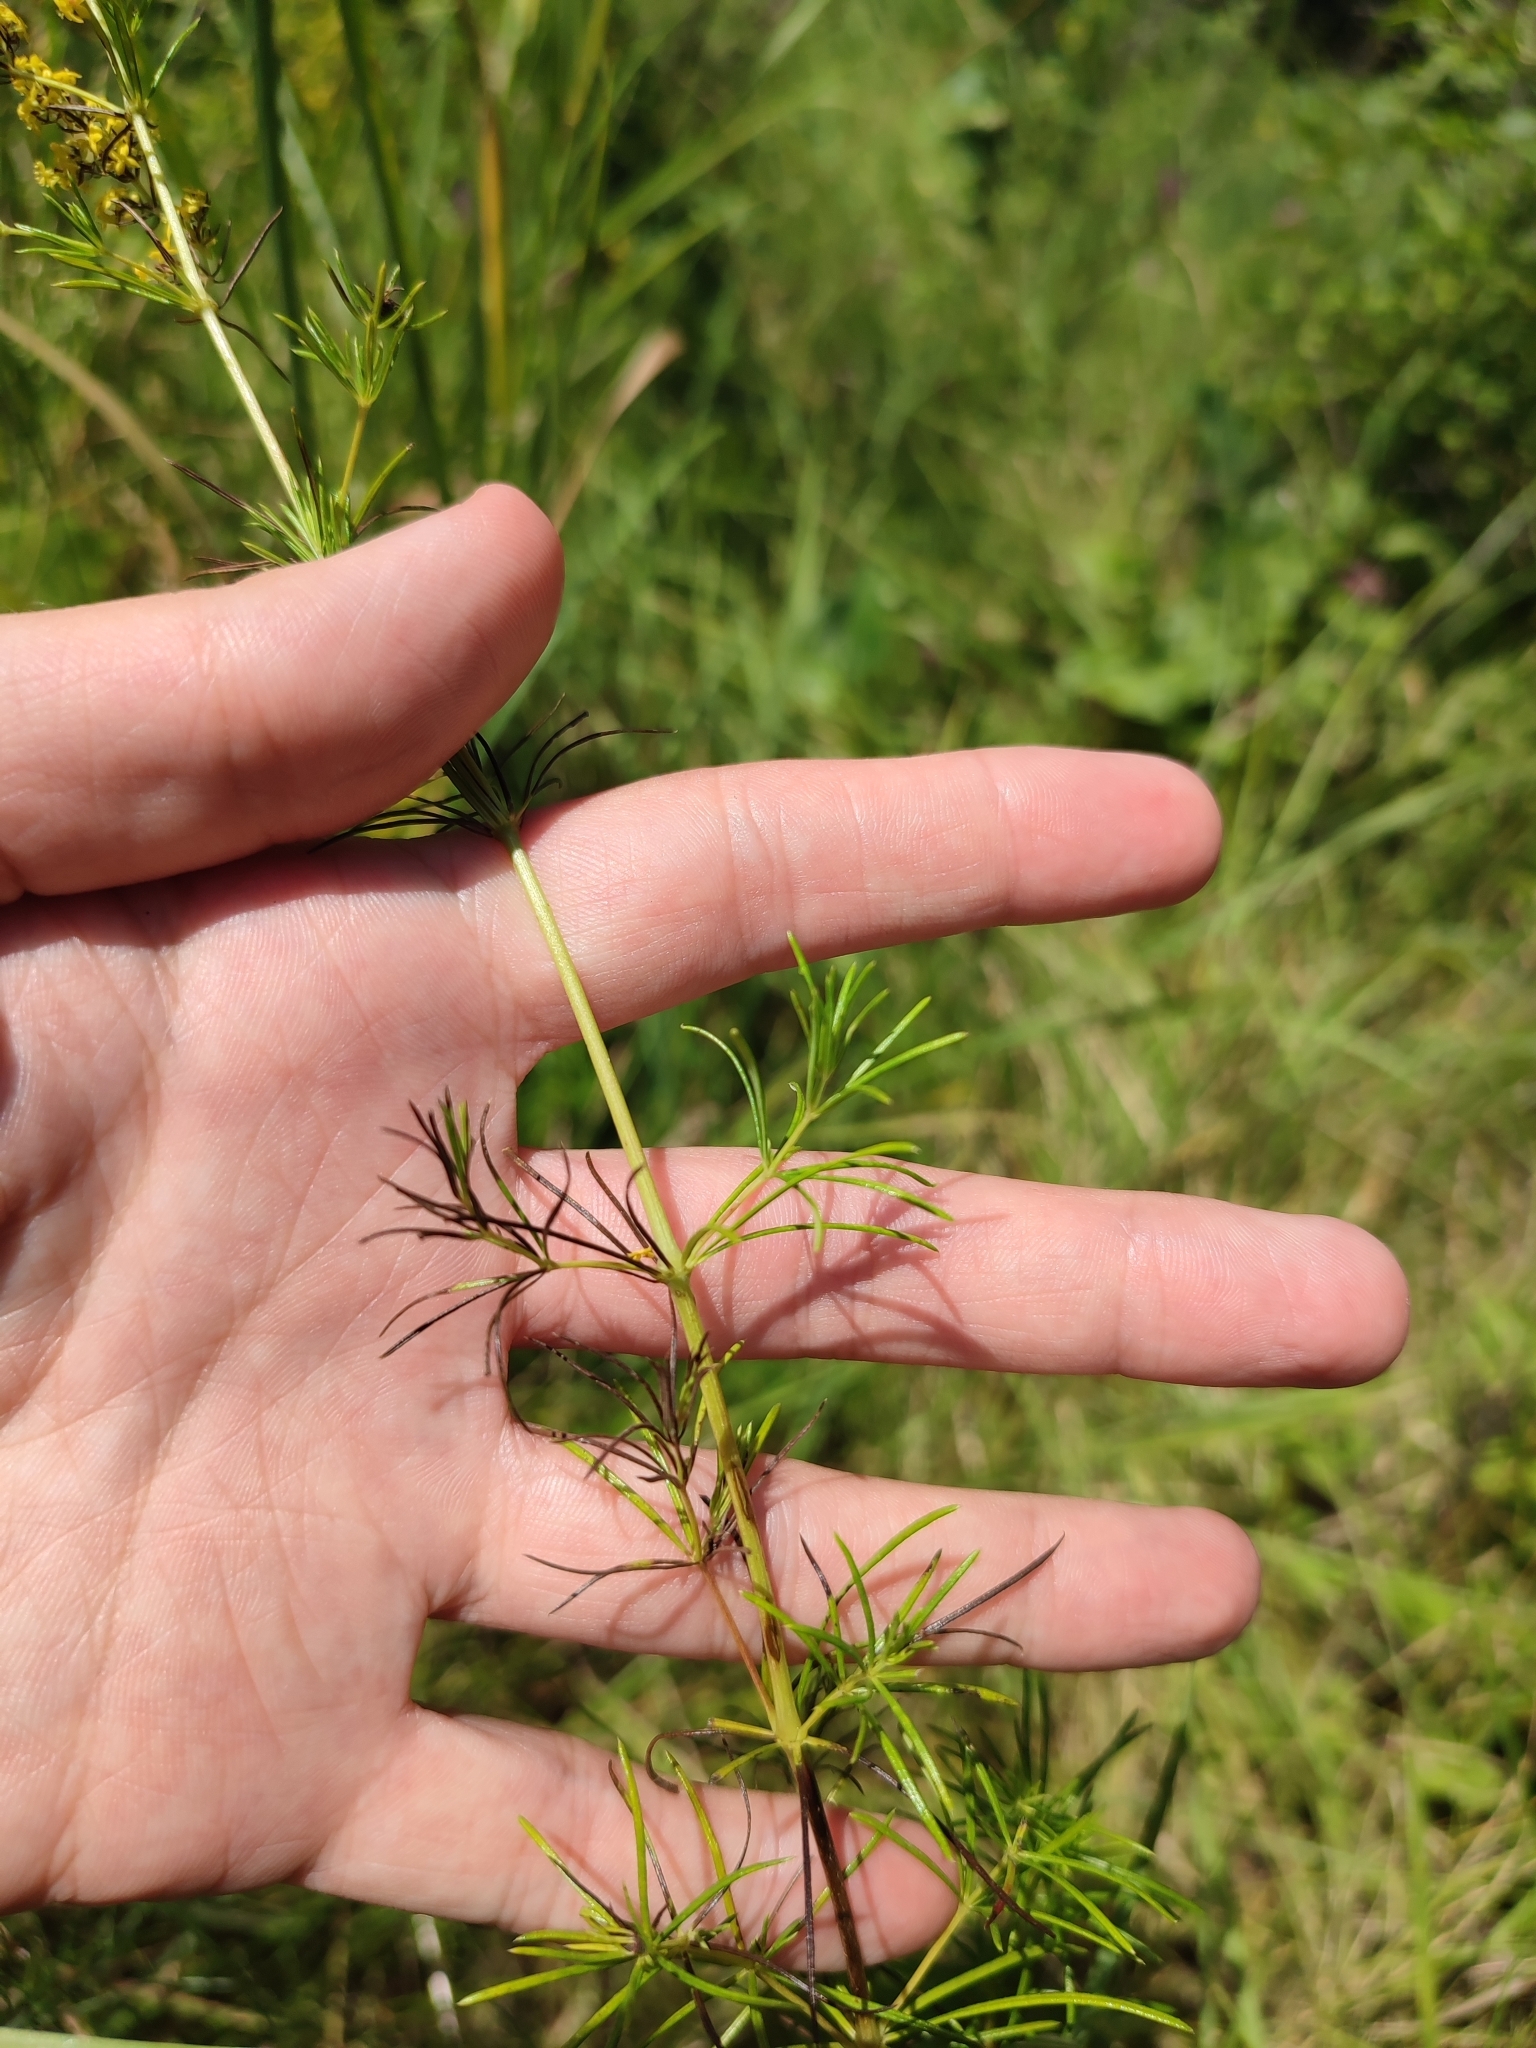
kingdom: Plantae
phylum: Tracheophyta
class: Magnoliopsida
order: Gentianales
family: Rubiaceae
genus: Galium
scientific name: Galium verum
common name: Lady's bedstraw
